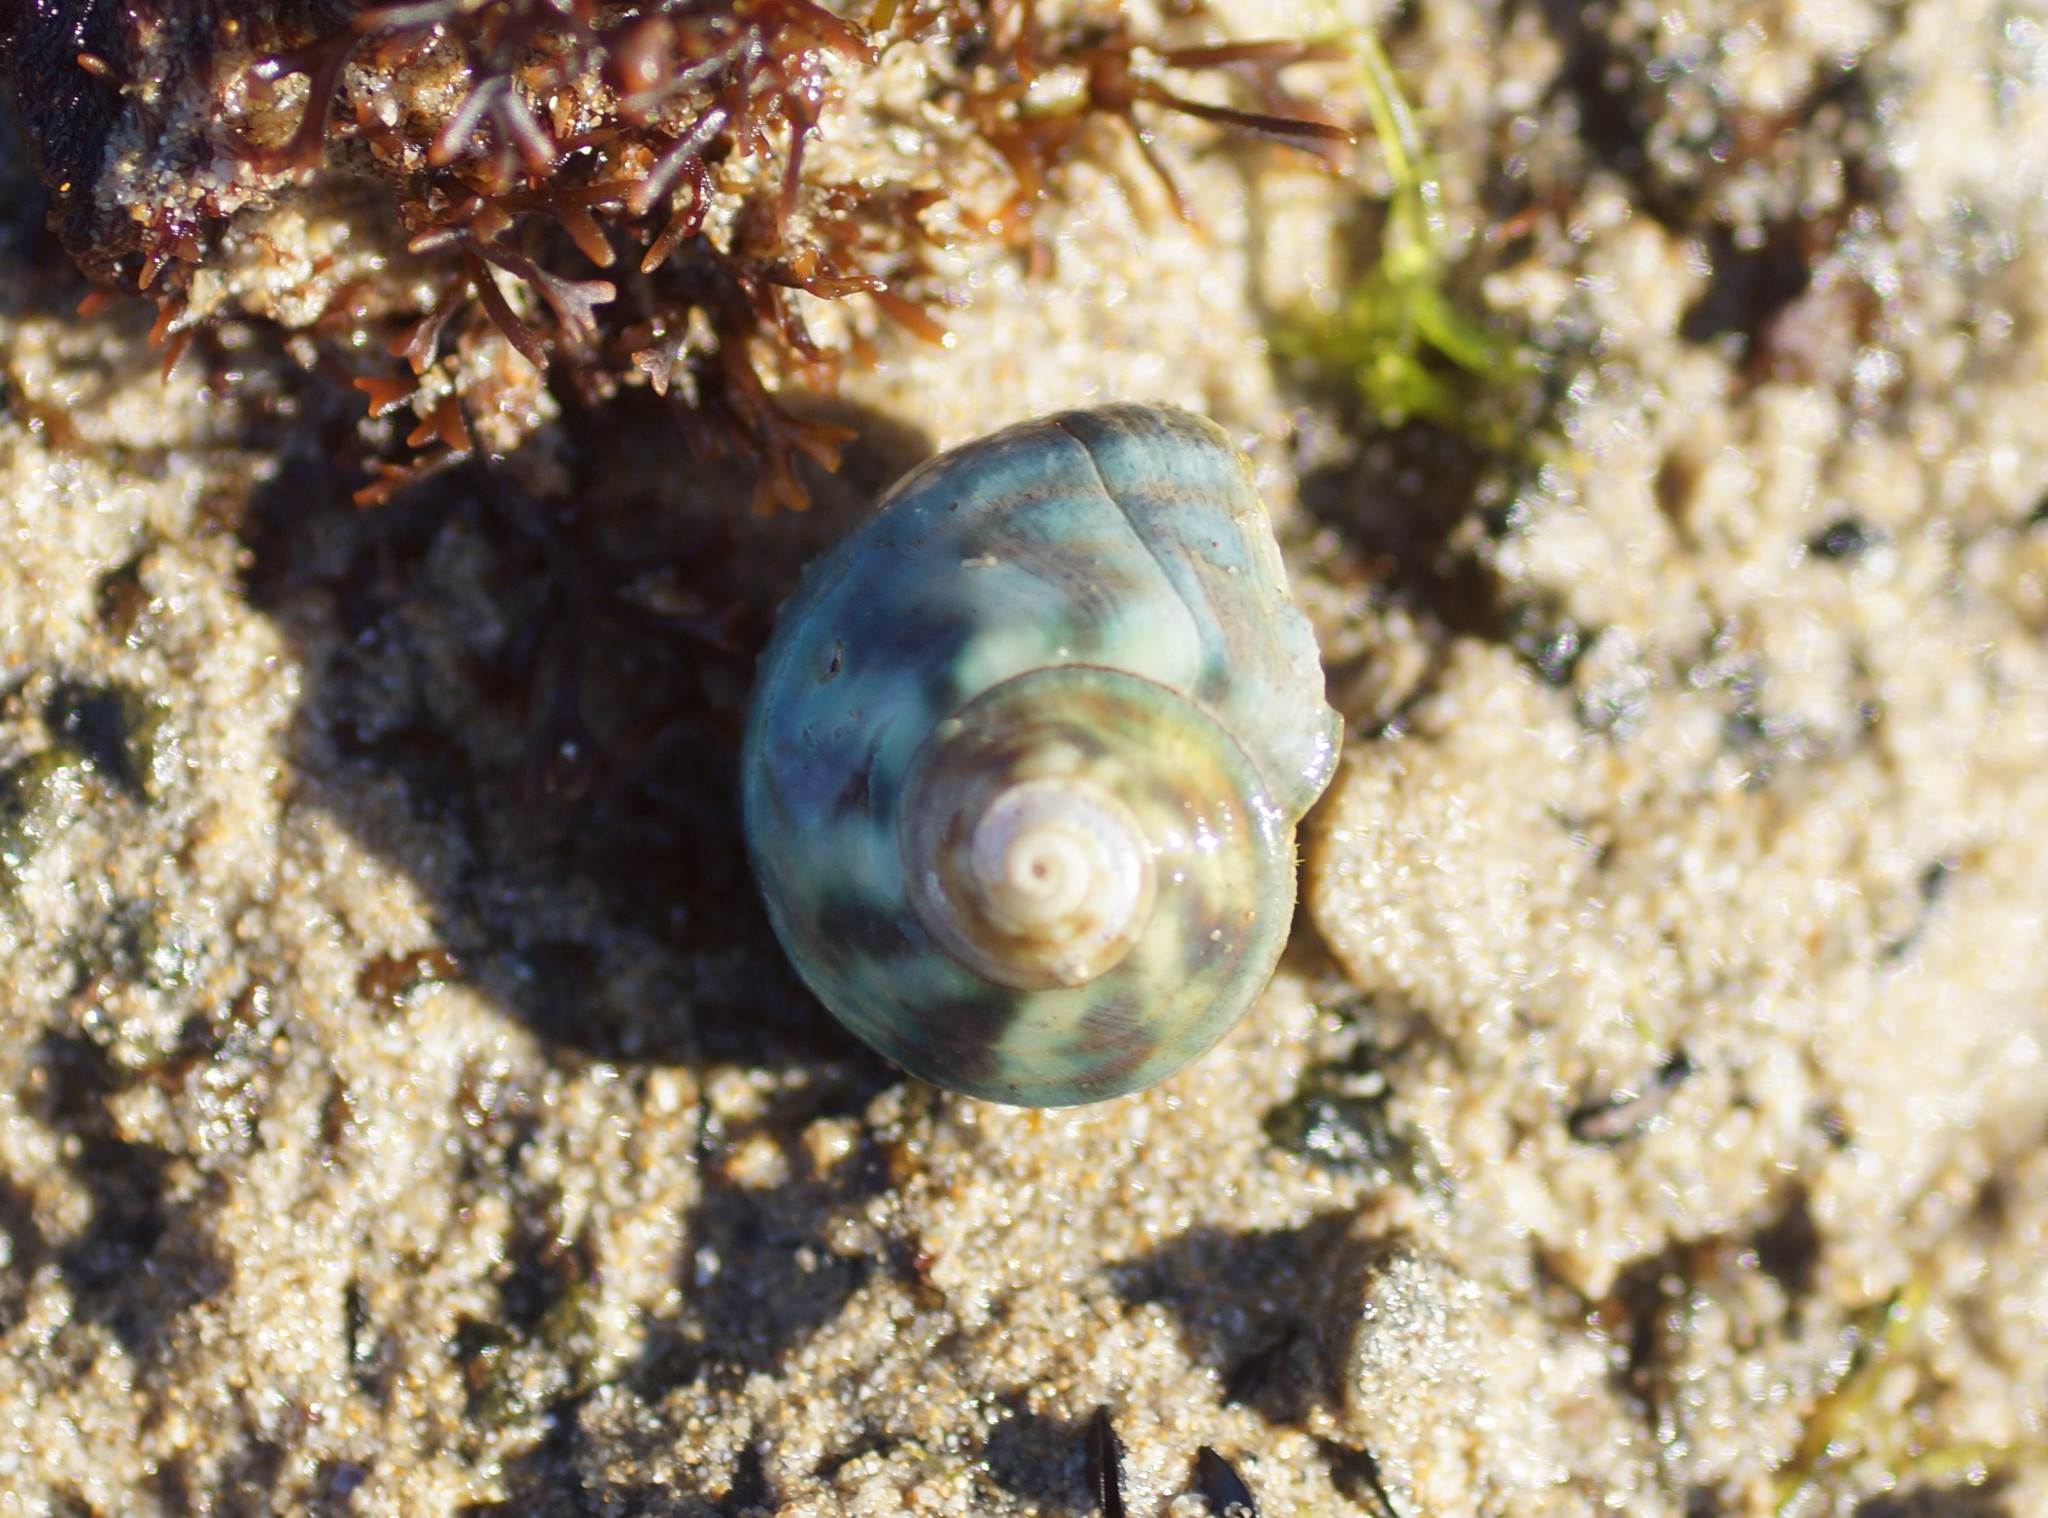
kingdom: Animalia
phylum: Mollusca
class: Gastropoda
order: Trochida
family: Turbinidae
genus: Lunella
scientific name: Lunella undulata
